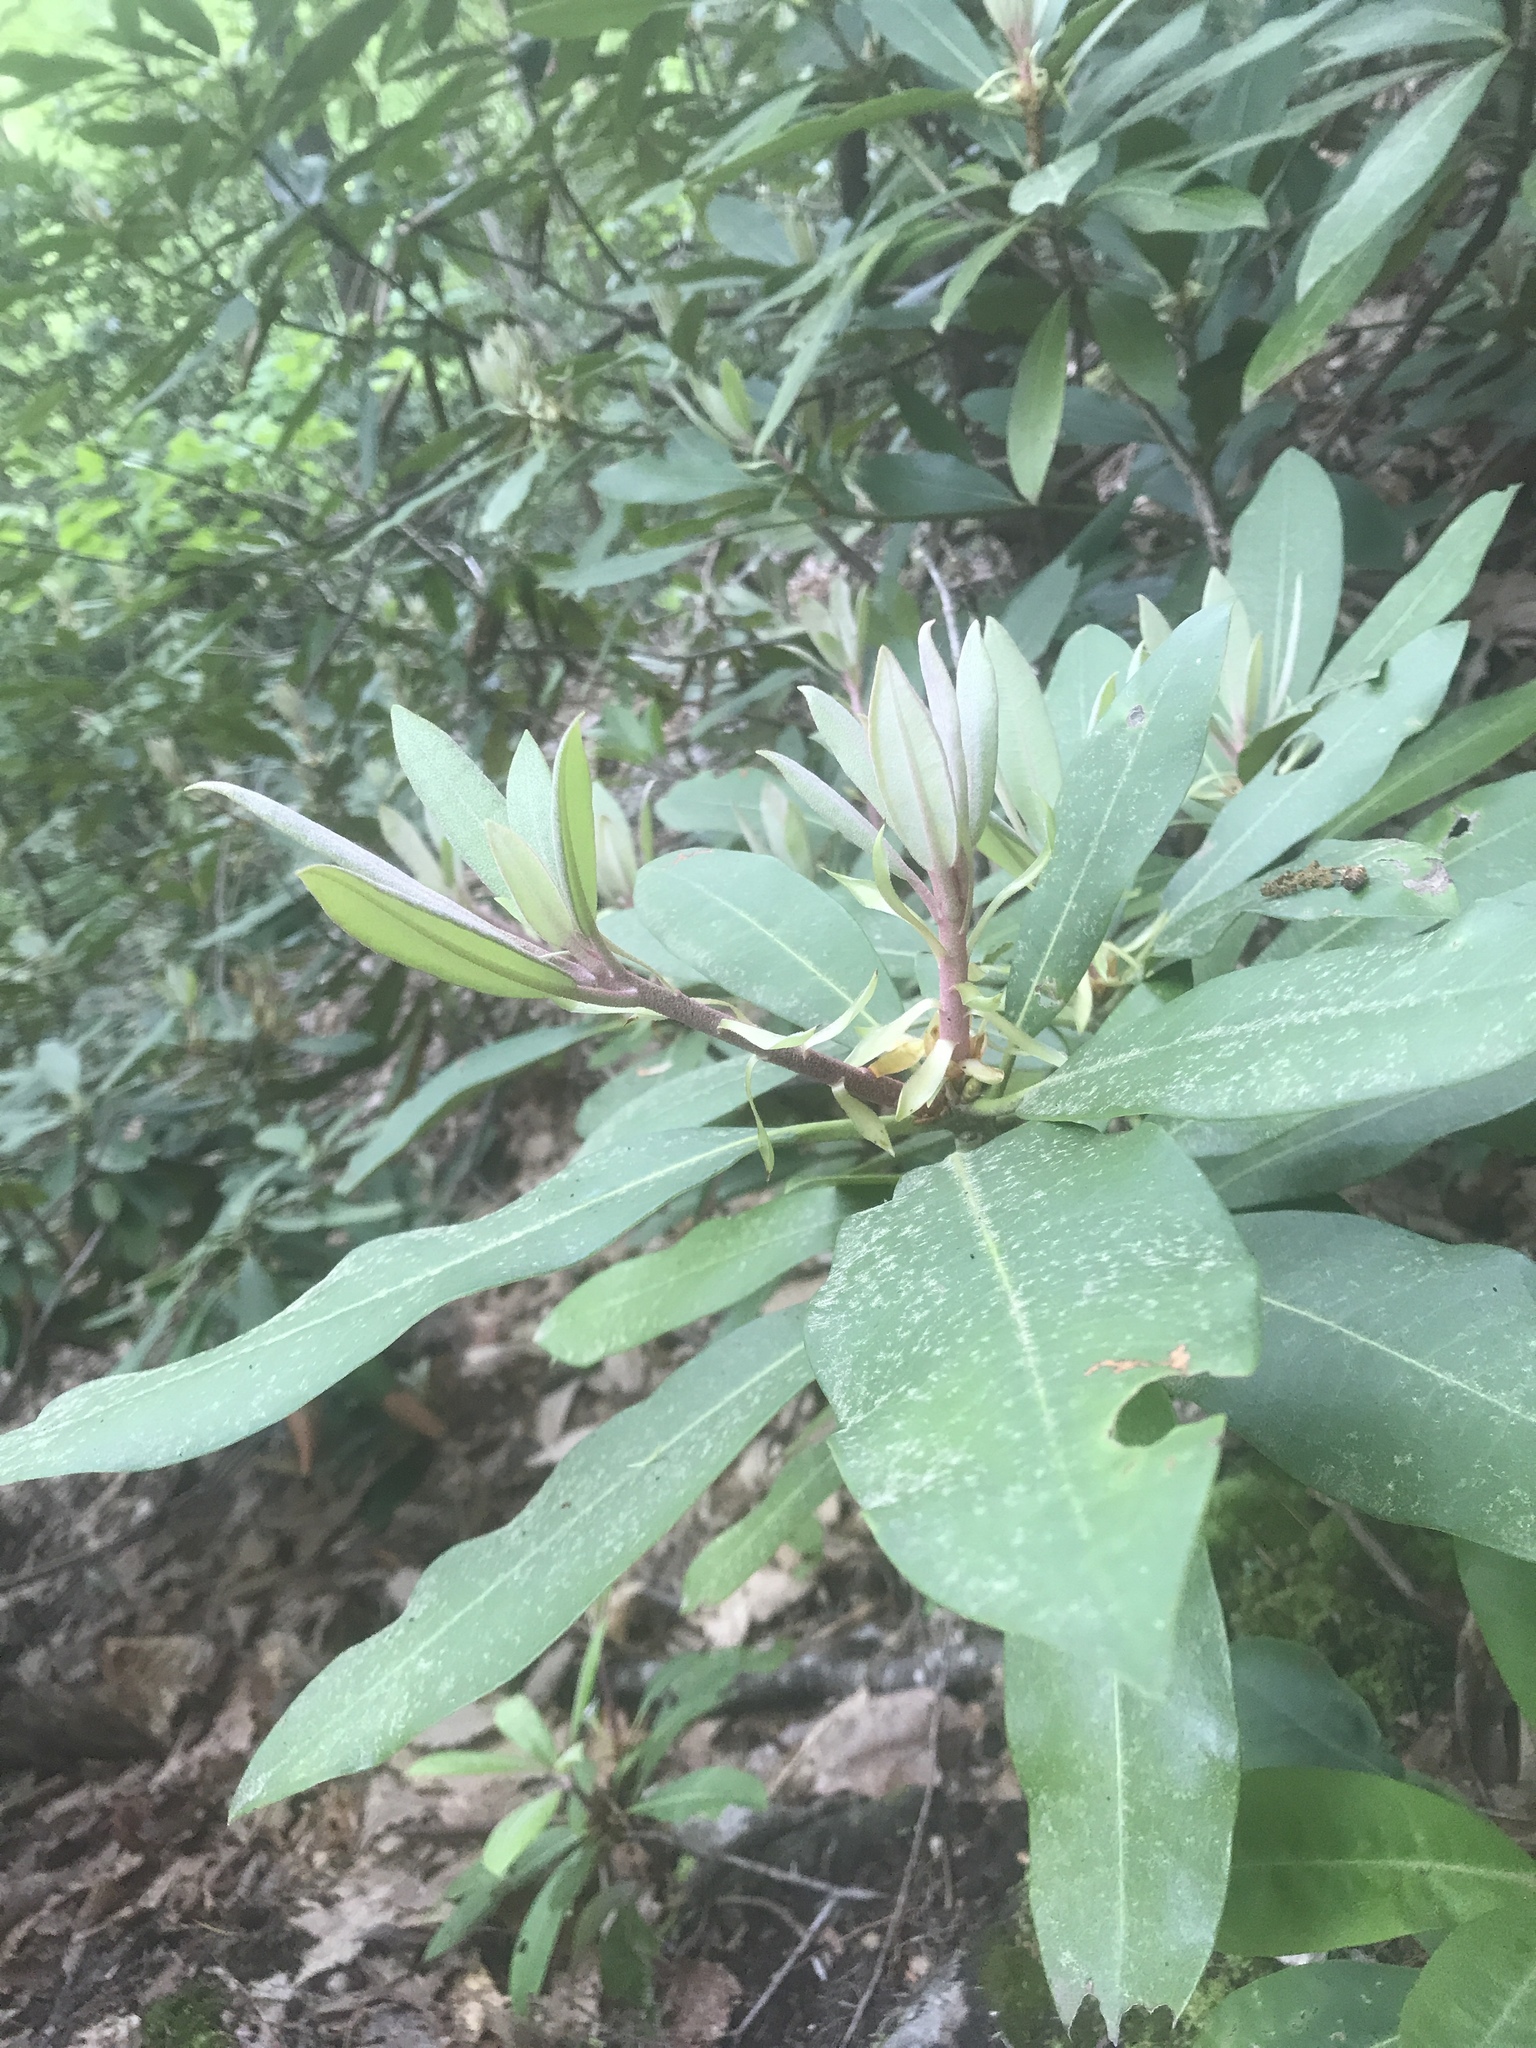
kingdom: Plantae
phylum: Tracheophyta
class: Magnoliopsida
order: Ericales
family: Ericaceae
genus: Rhododendron
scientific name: Rhododendron maximum
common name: Great rhododendron
